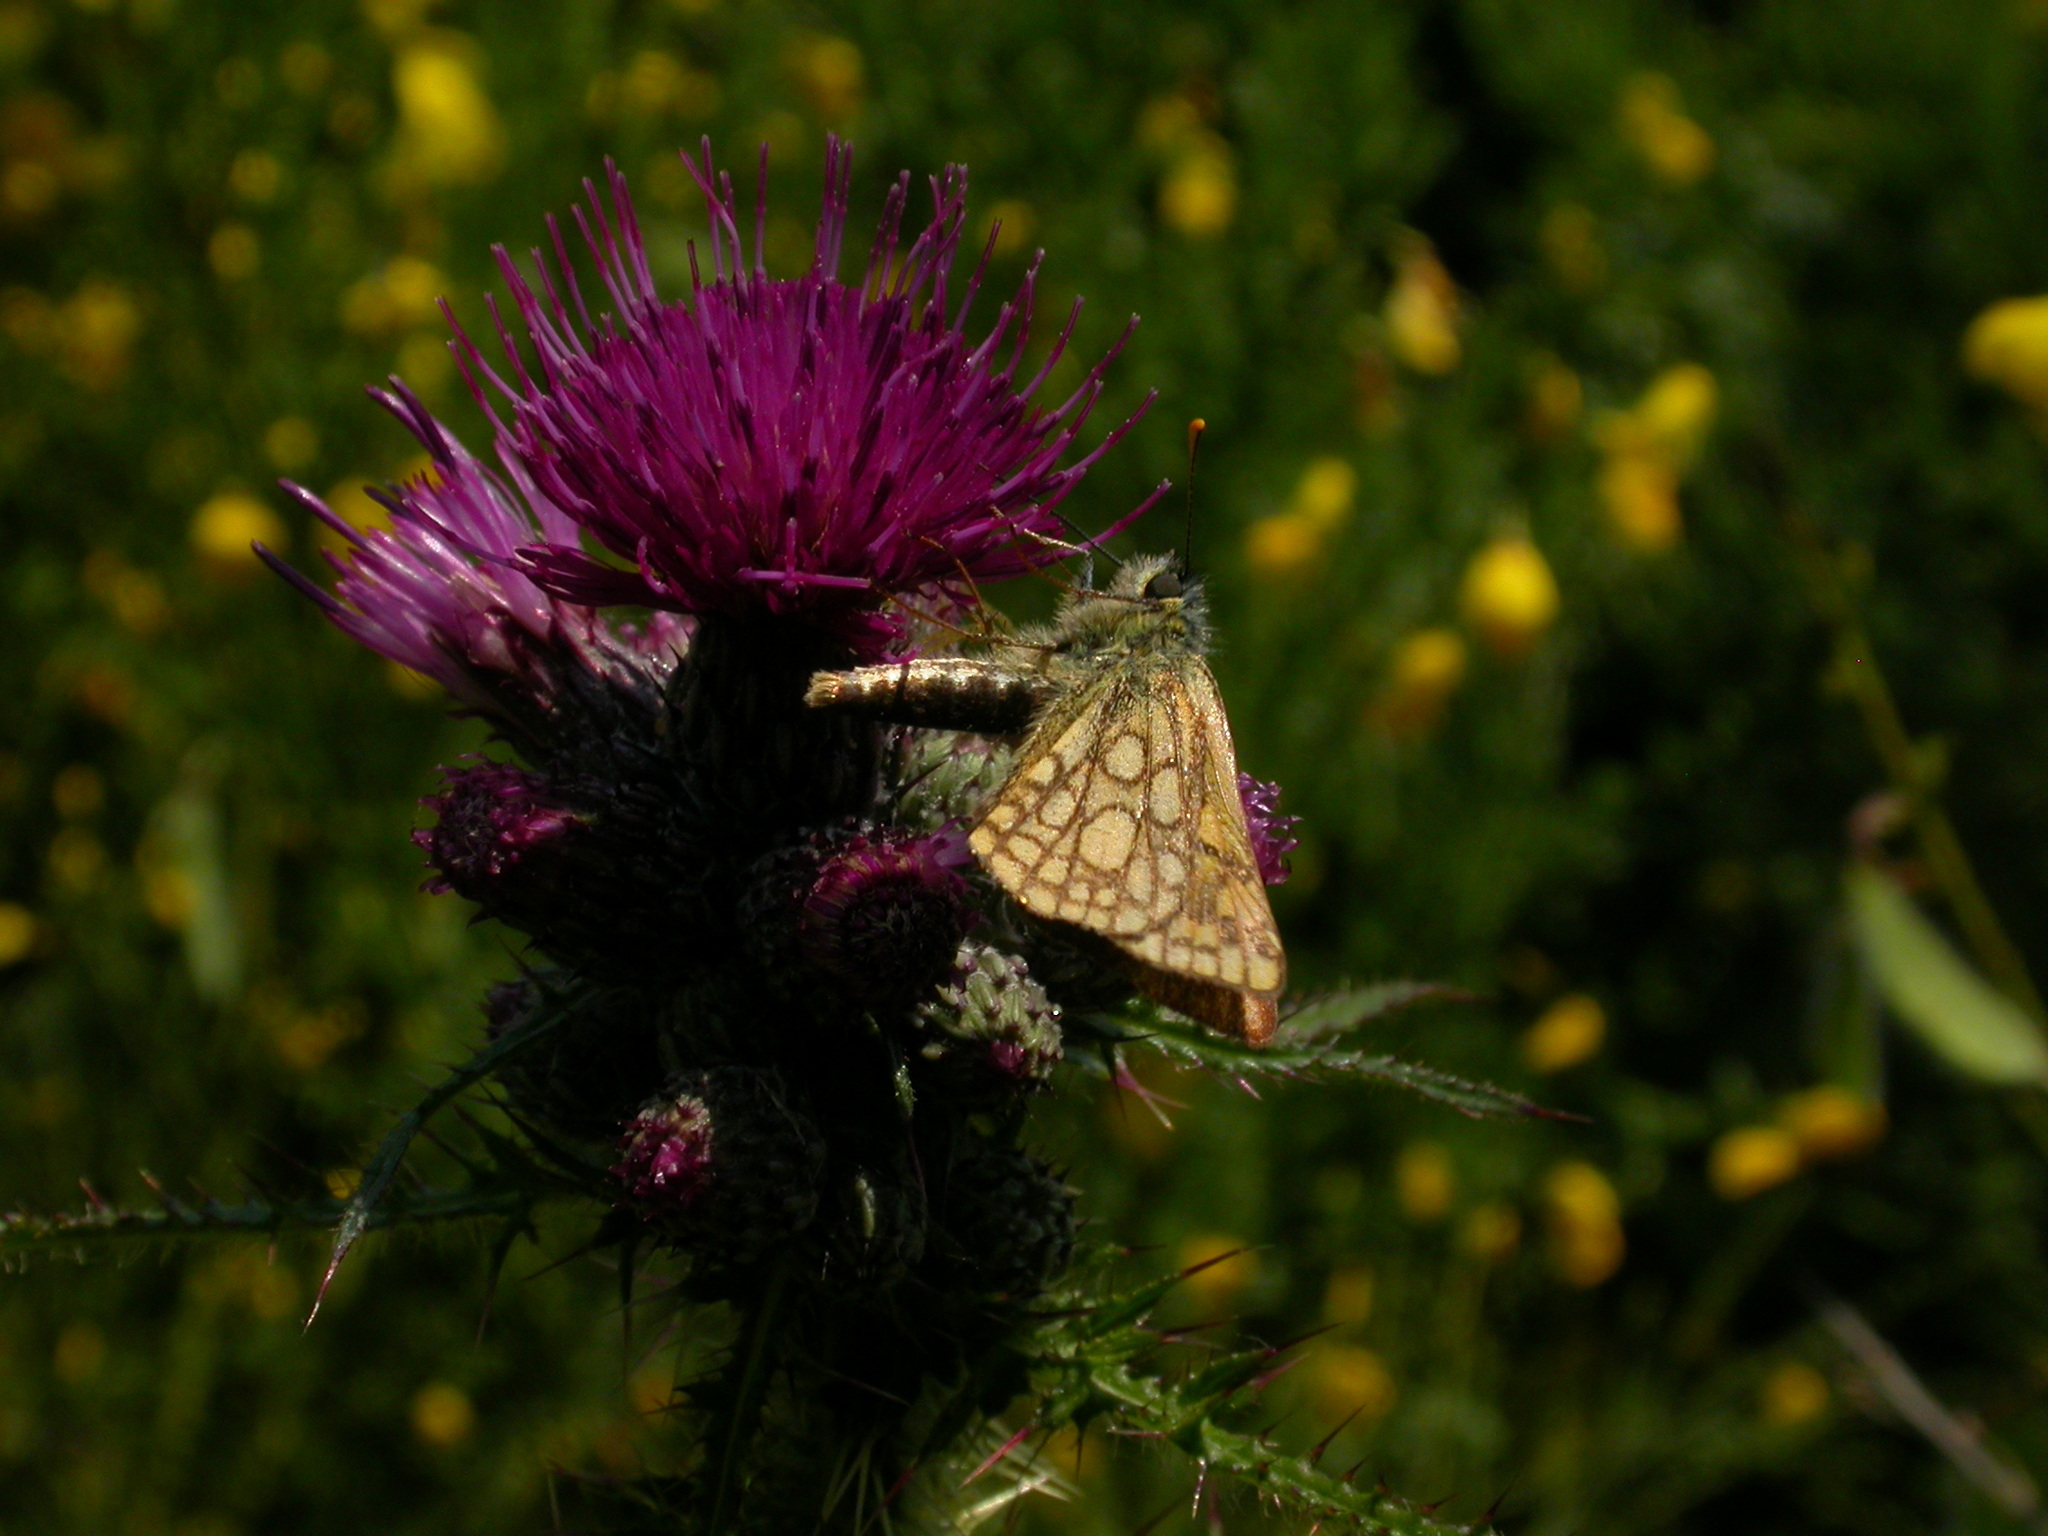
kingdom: Animalia
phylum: Arthropoda
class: Insecta
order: Lepidoptera
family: Hesperiidae
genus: Carterocephalus
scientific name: Carterocephalus palaemon
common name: Chequered skipper
